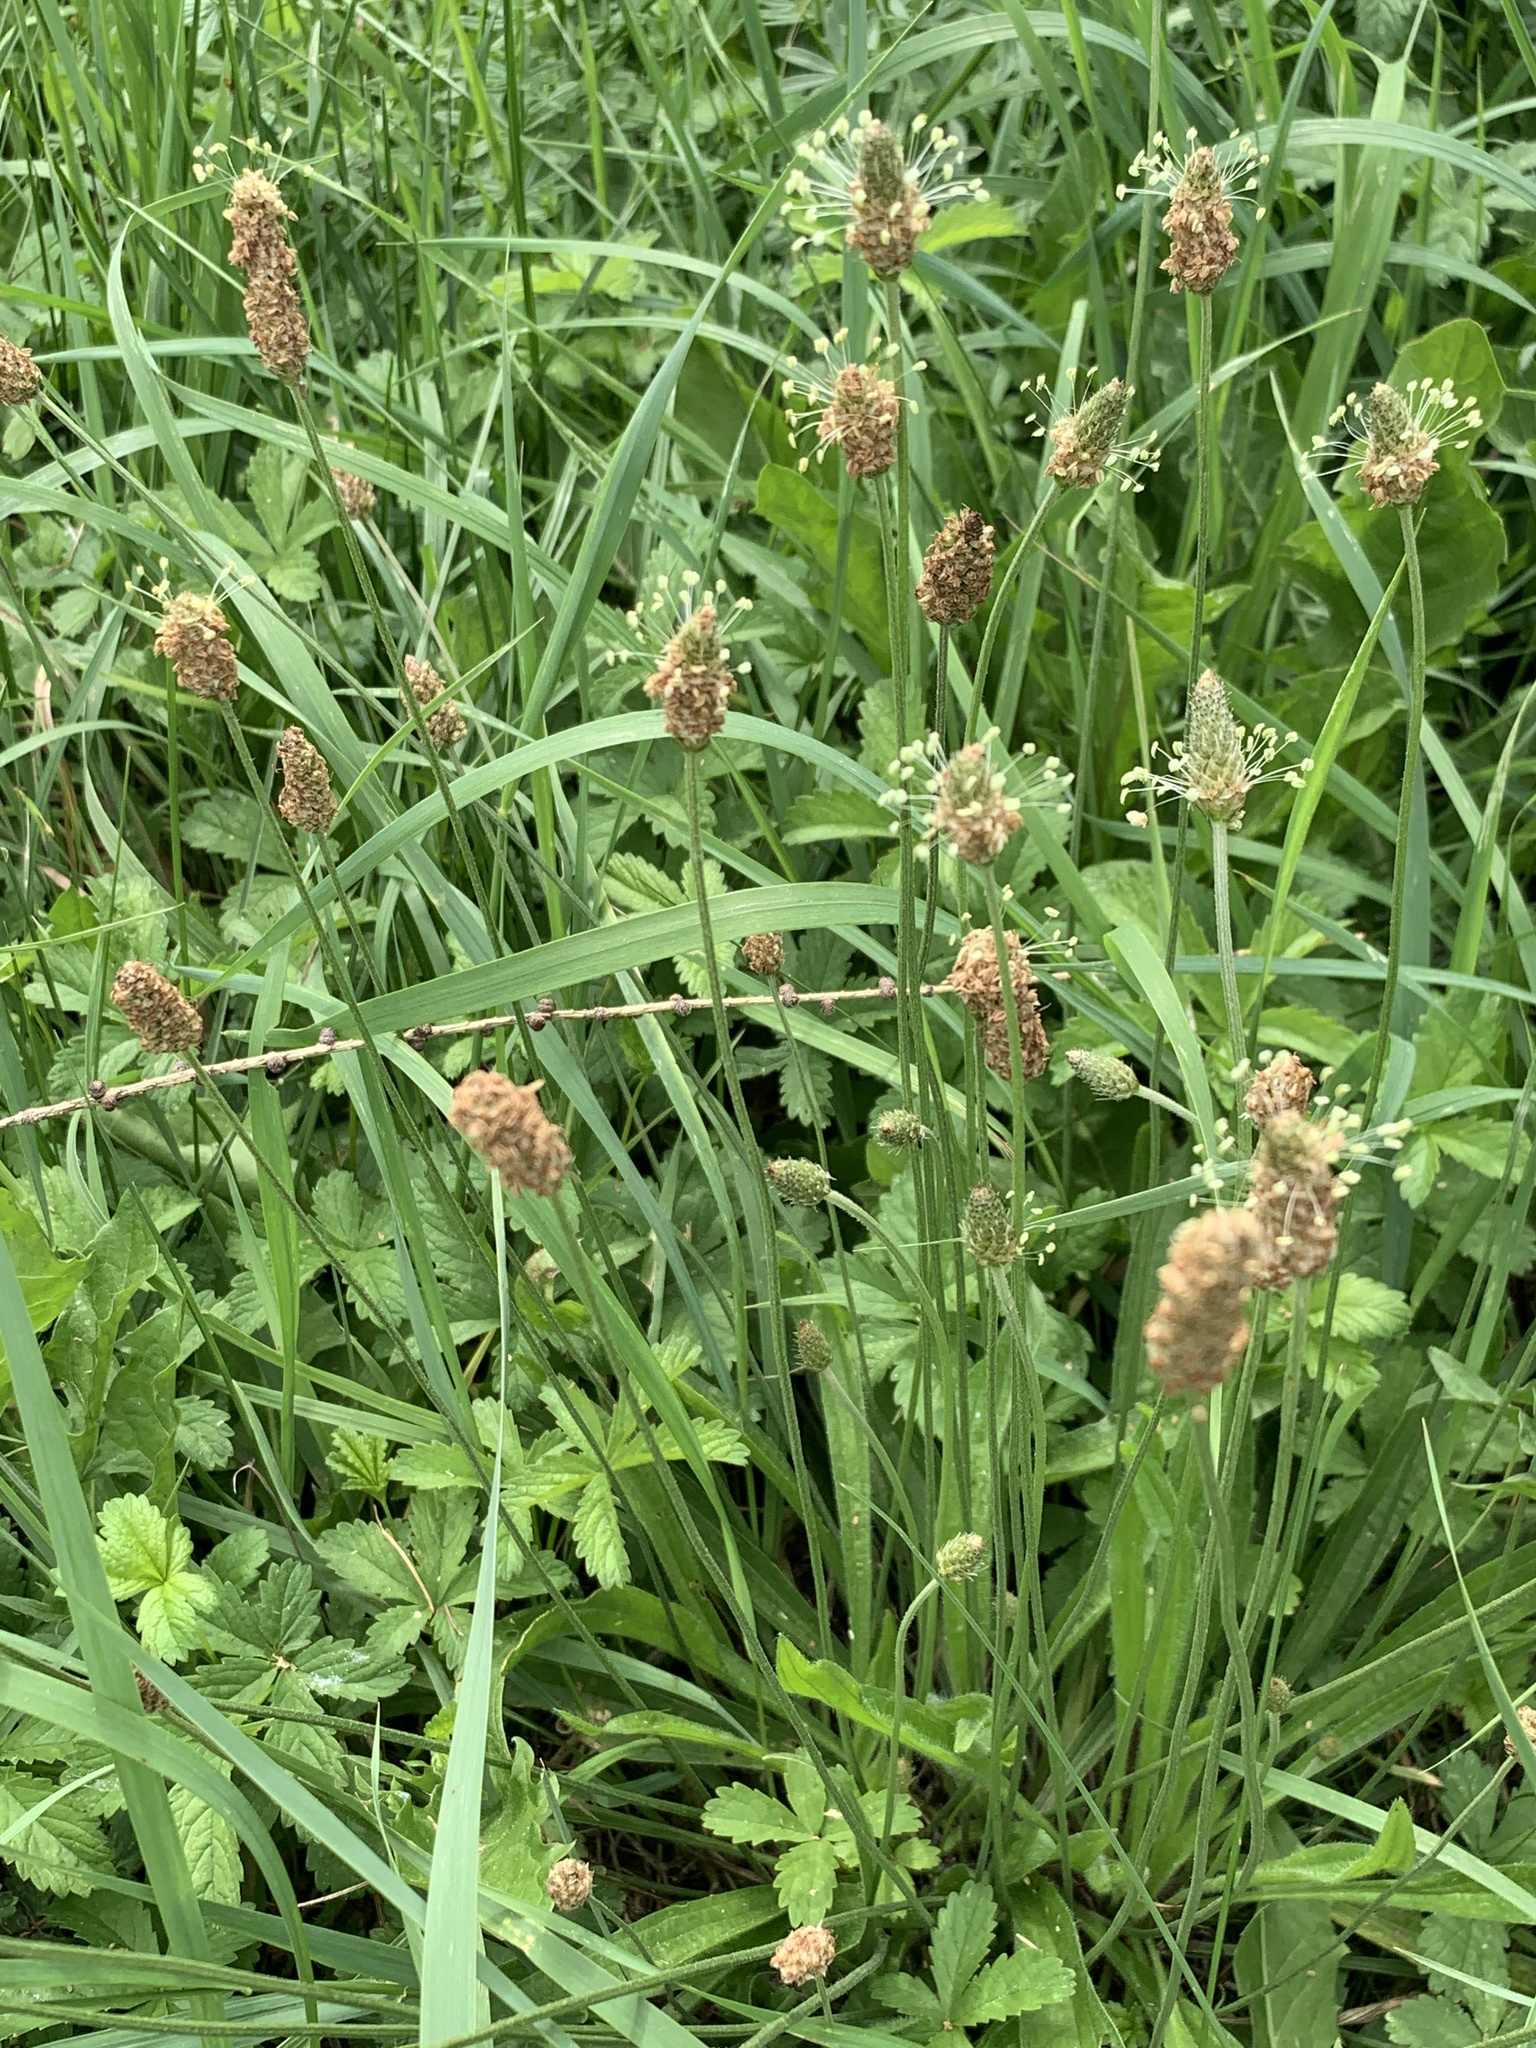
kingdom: Plantae
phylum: Tracheophyta
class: Magnoliopsida
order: Lamiales
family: Plantaginaceae
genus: Plantago
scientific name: Plantago lanceolata
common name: Ribwort plantain
